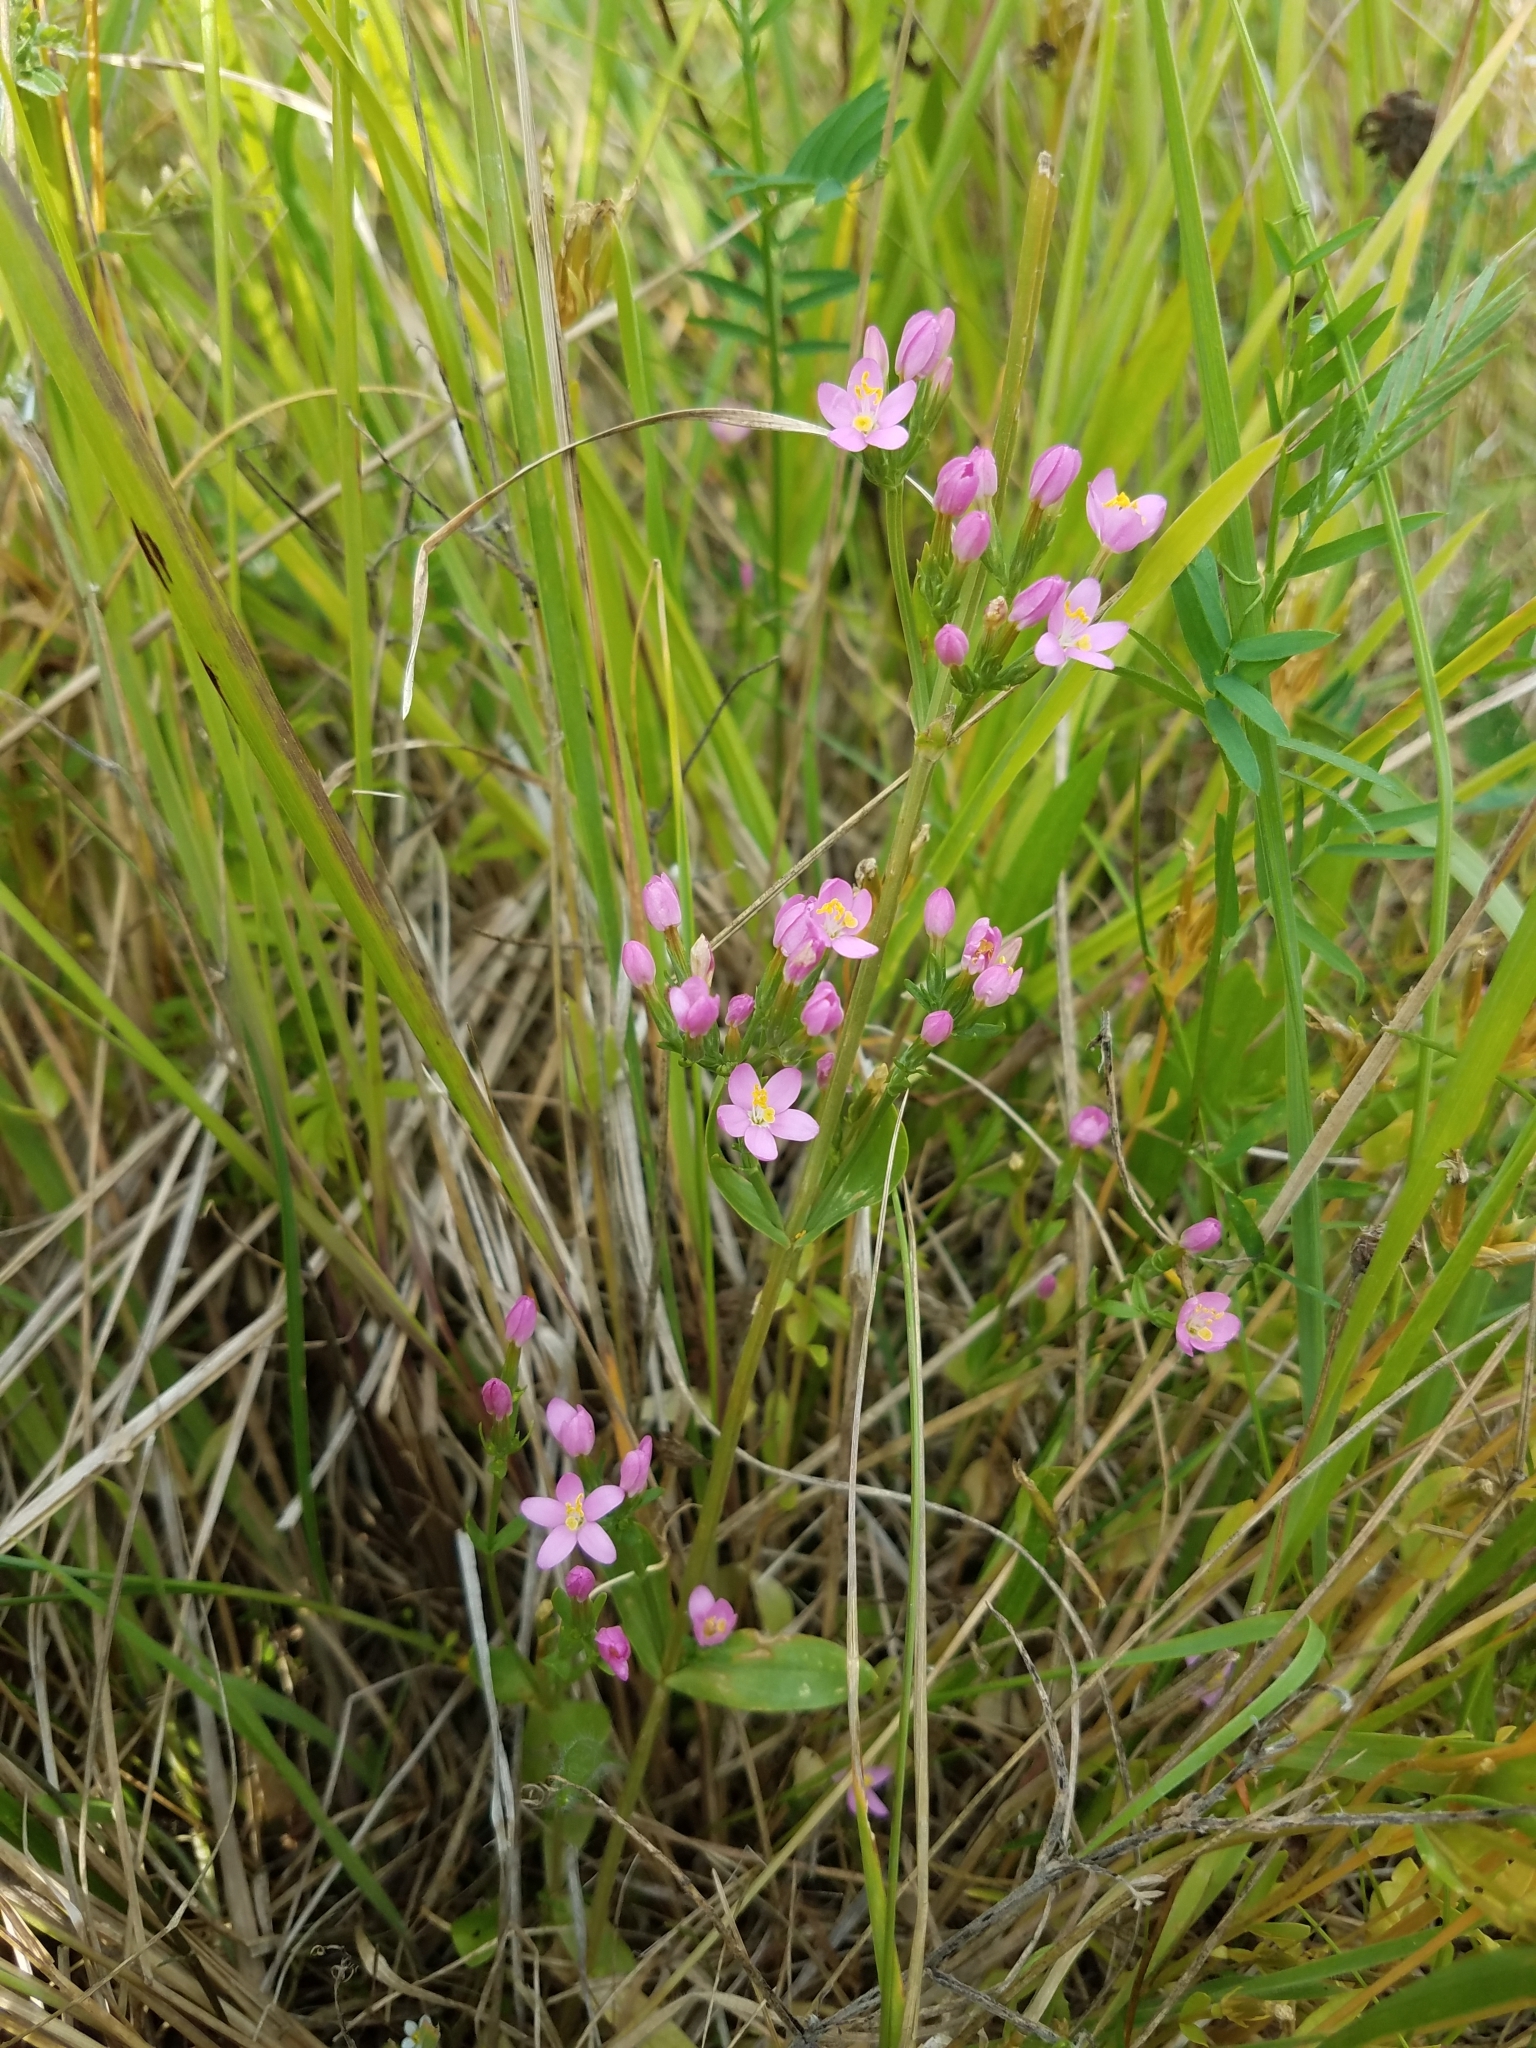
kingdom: Plantae
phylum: Tracheophyta
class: Magnoliopsida
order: Gentianales
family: Gentianaceae
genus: Centaurium
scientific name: Centaurium erythraea
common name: Common centaury
